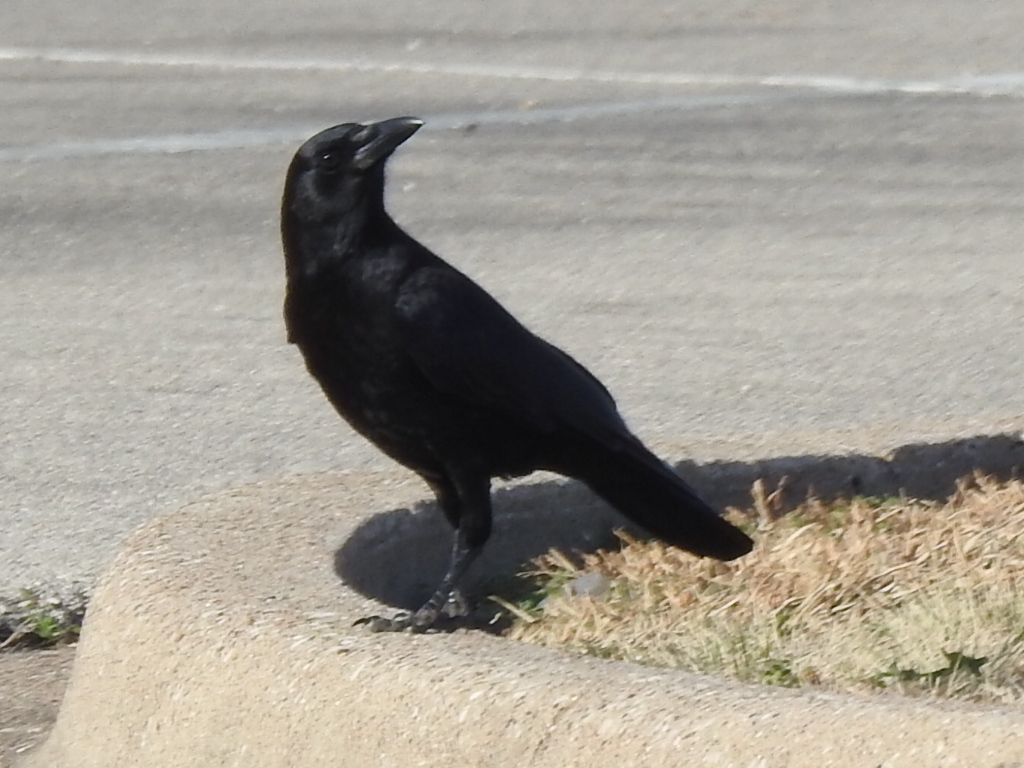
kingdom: Animalia
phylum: Chordata
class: Aves
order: Passeriformes
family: Corvidae
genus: Corvus
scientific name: Corvus brachyrhynchos
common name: American crow
